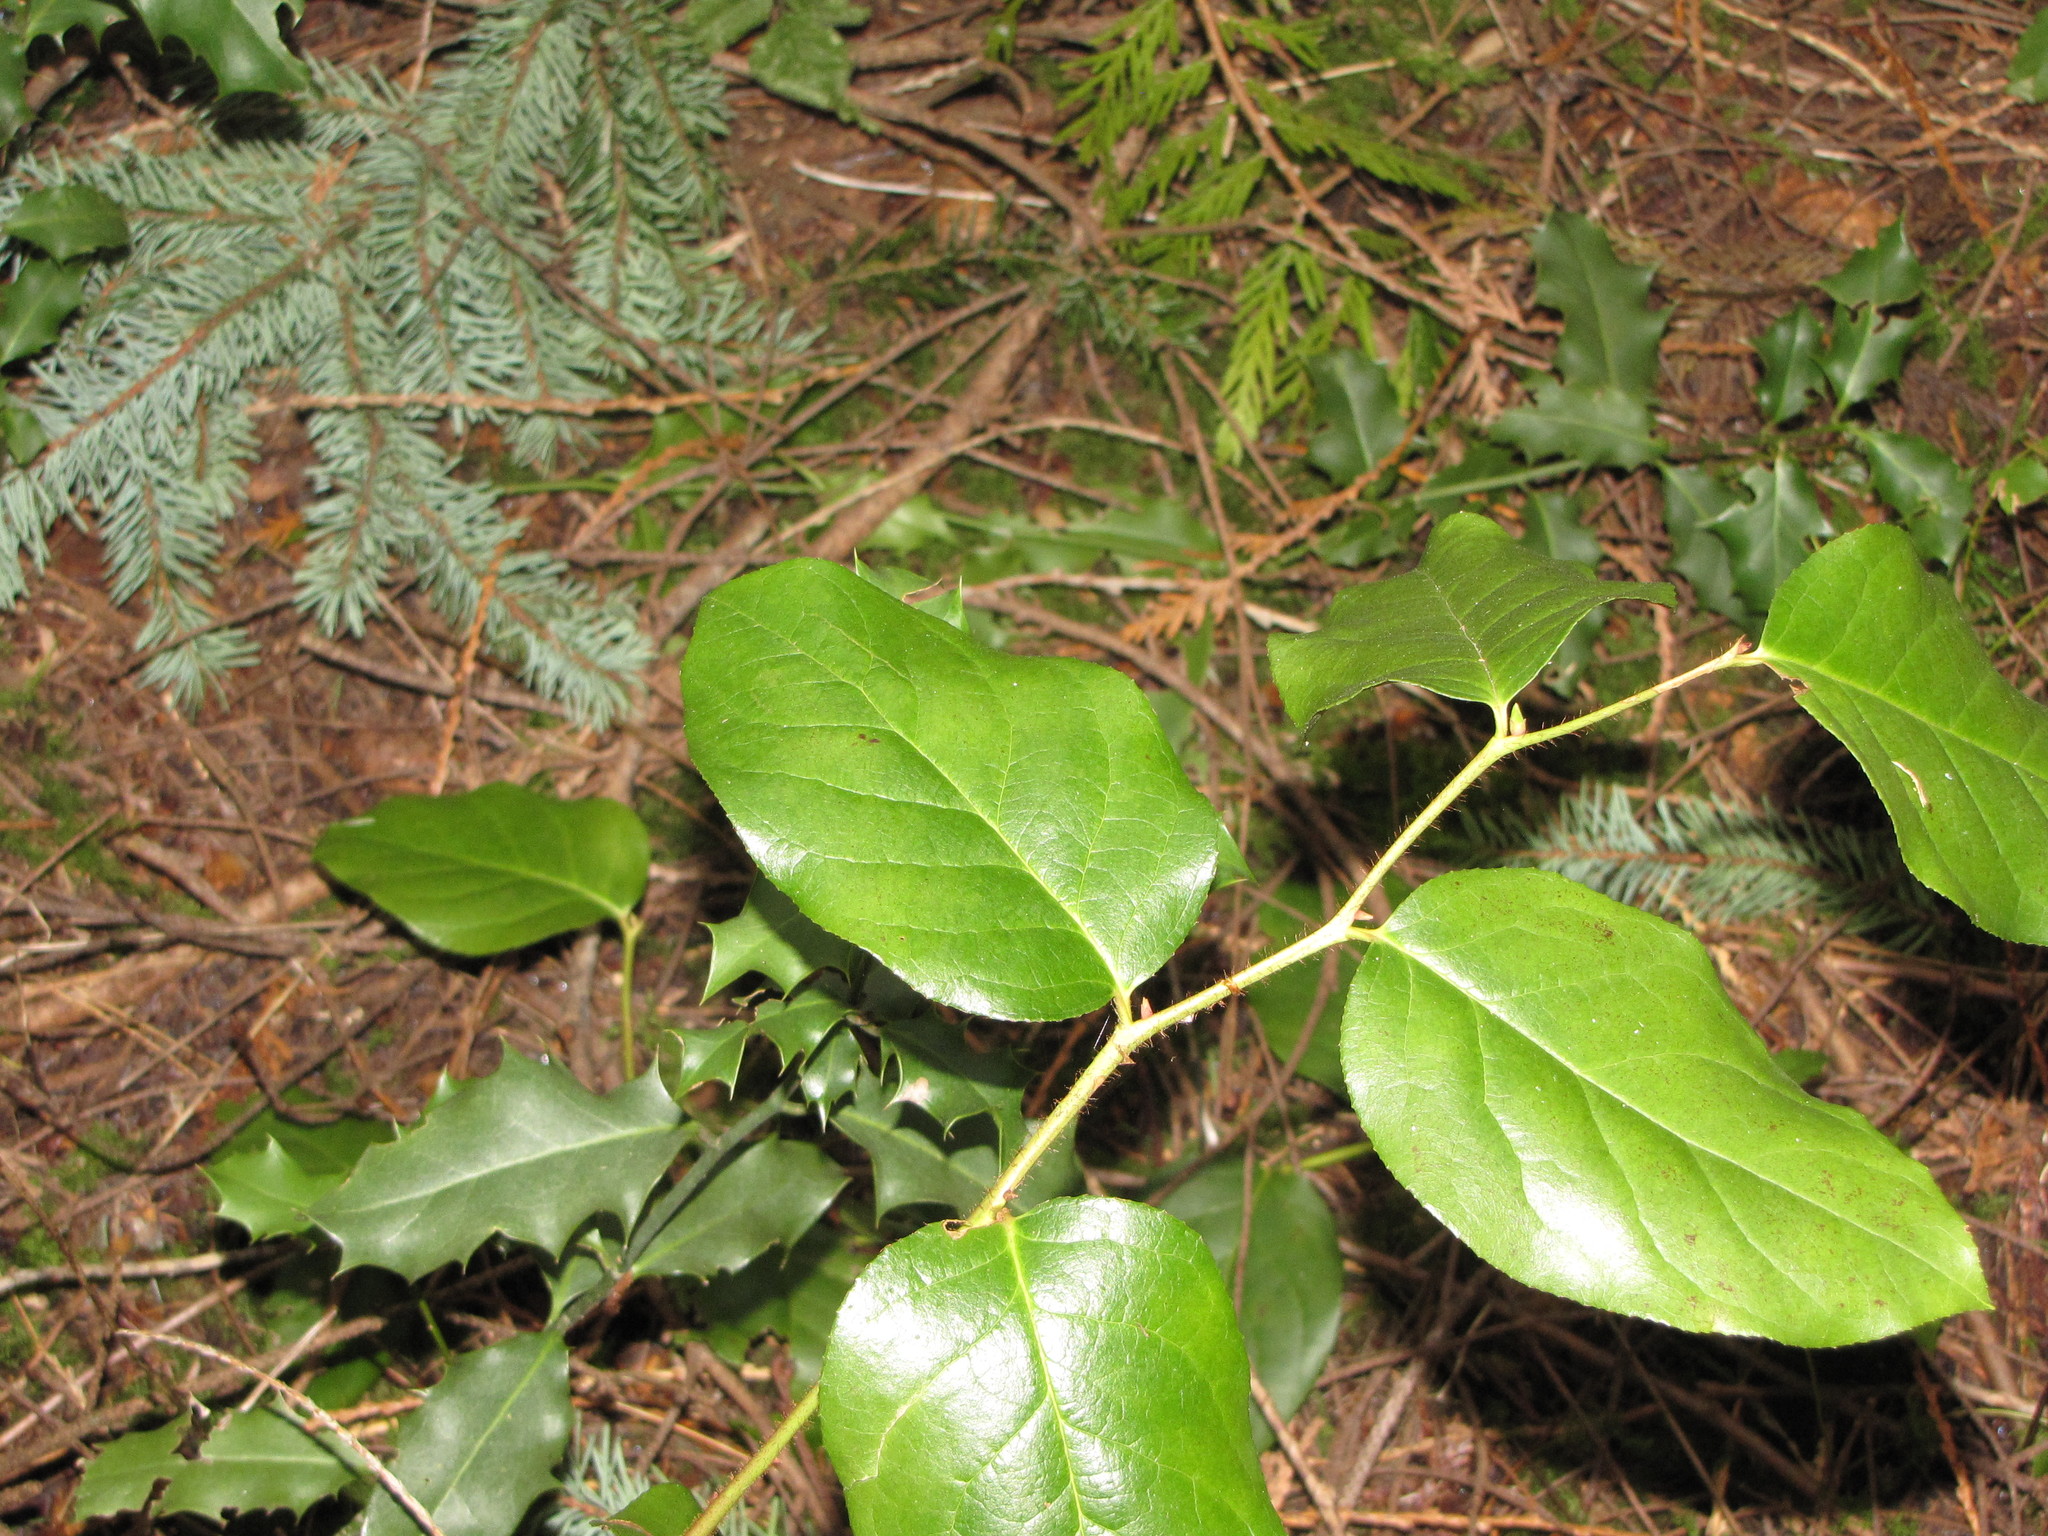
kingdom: Plantae
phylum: Tracheophyta
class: Magnoliopsida
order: Ericales
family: Ericaceae
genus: Gaultheria
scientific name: Gaultheria shallon
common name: Shallon
